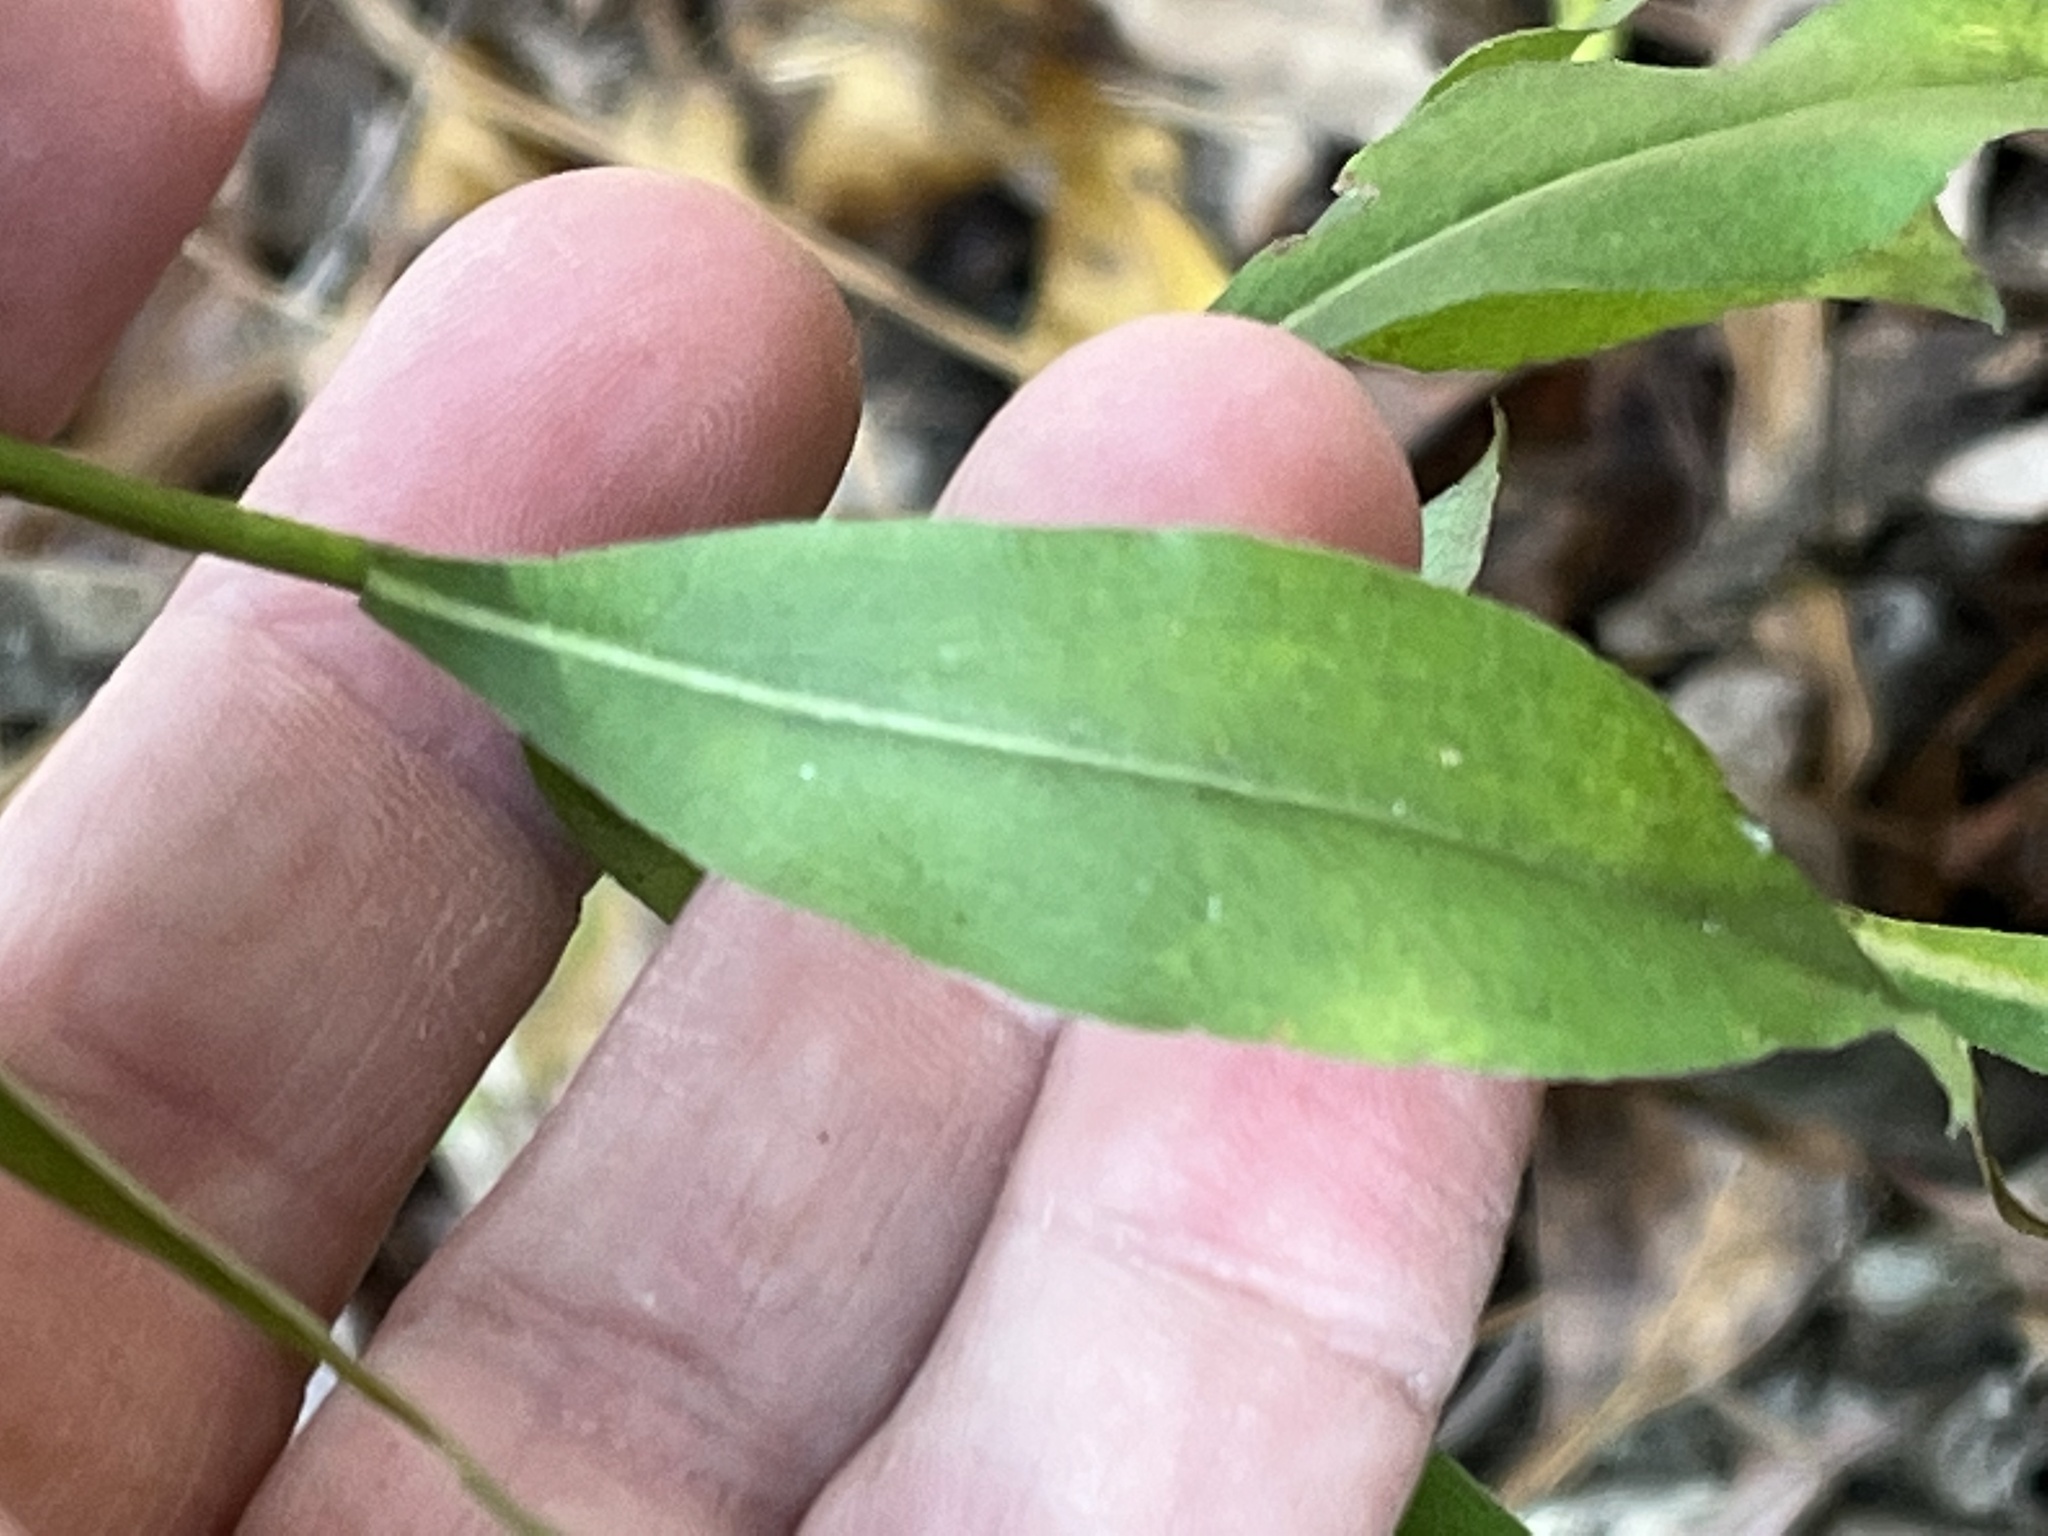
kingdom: Plantae
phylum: Tracheophyta
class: Magnoliopsida
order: Asterales
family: Asteraceae
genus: Solidago
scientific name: Solidago erecta
